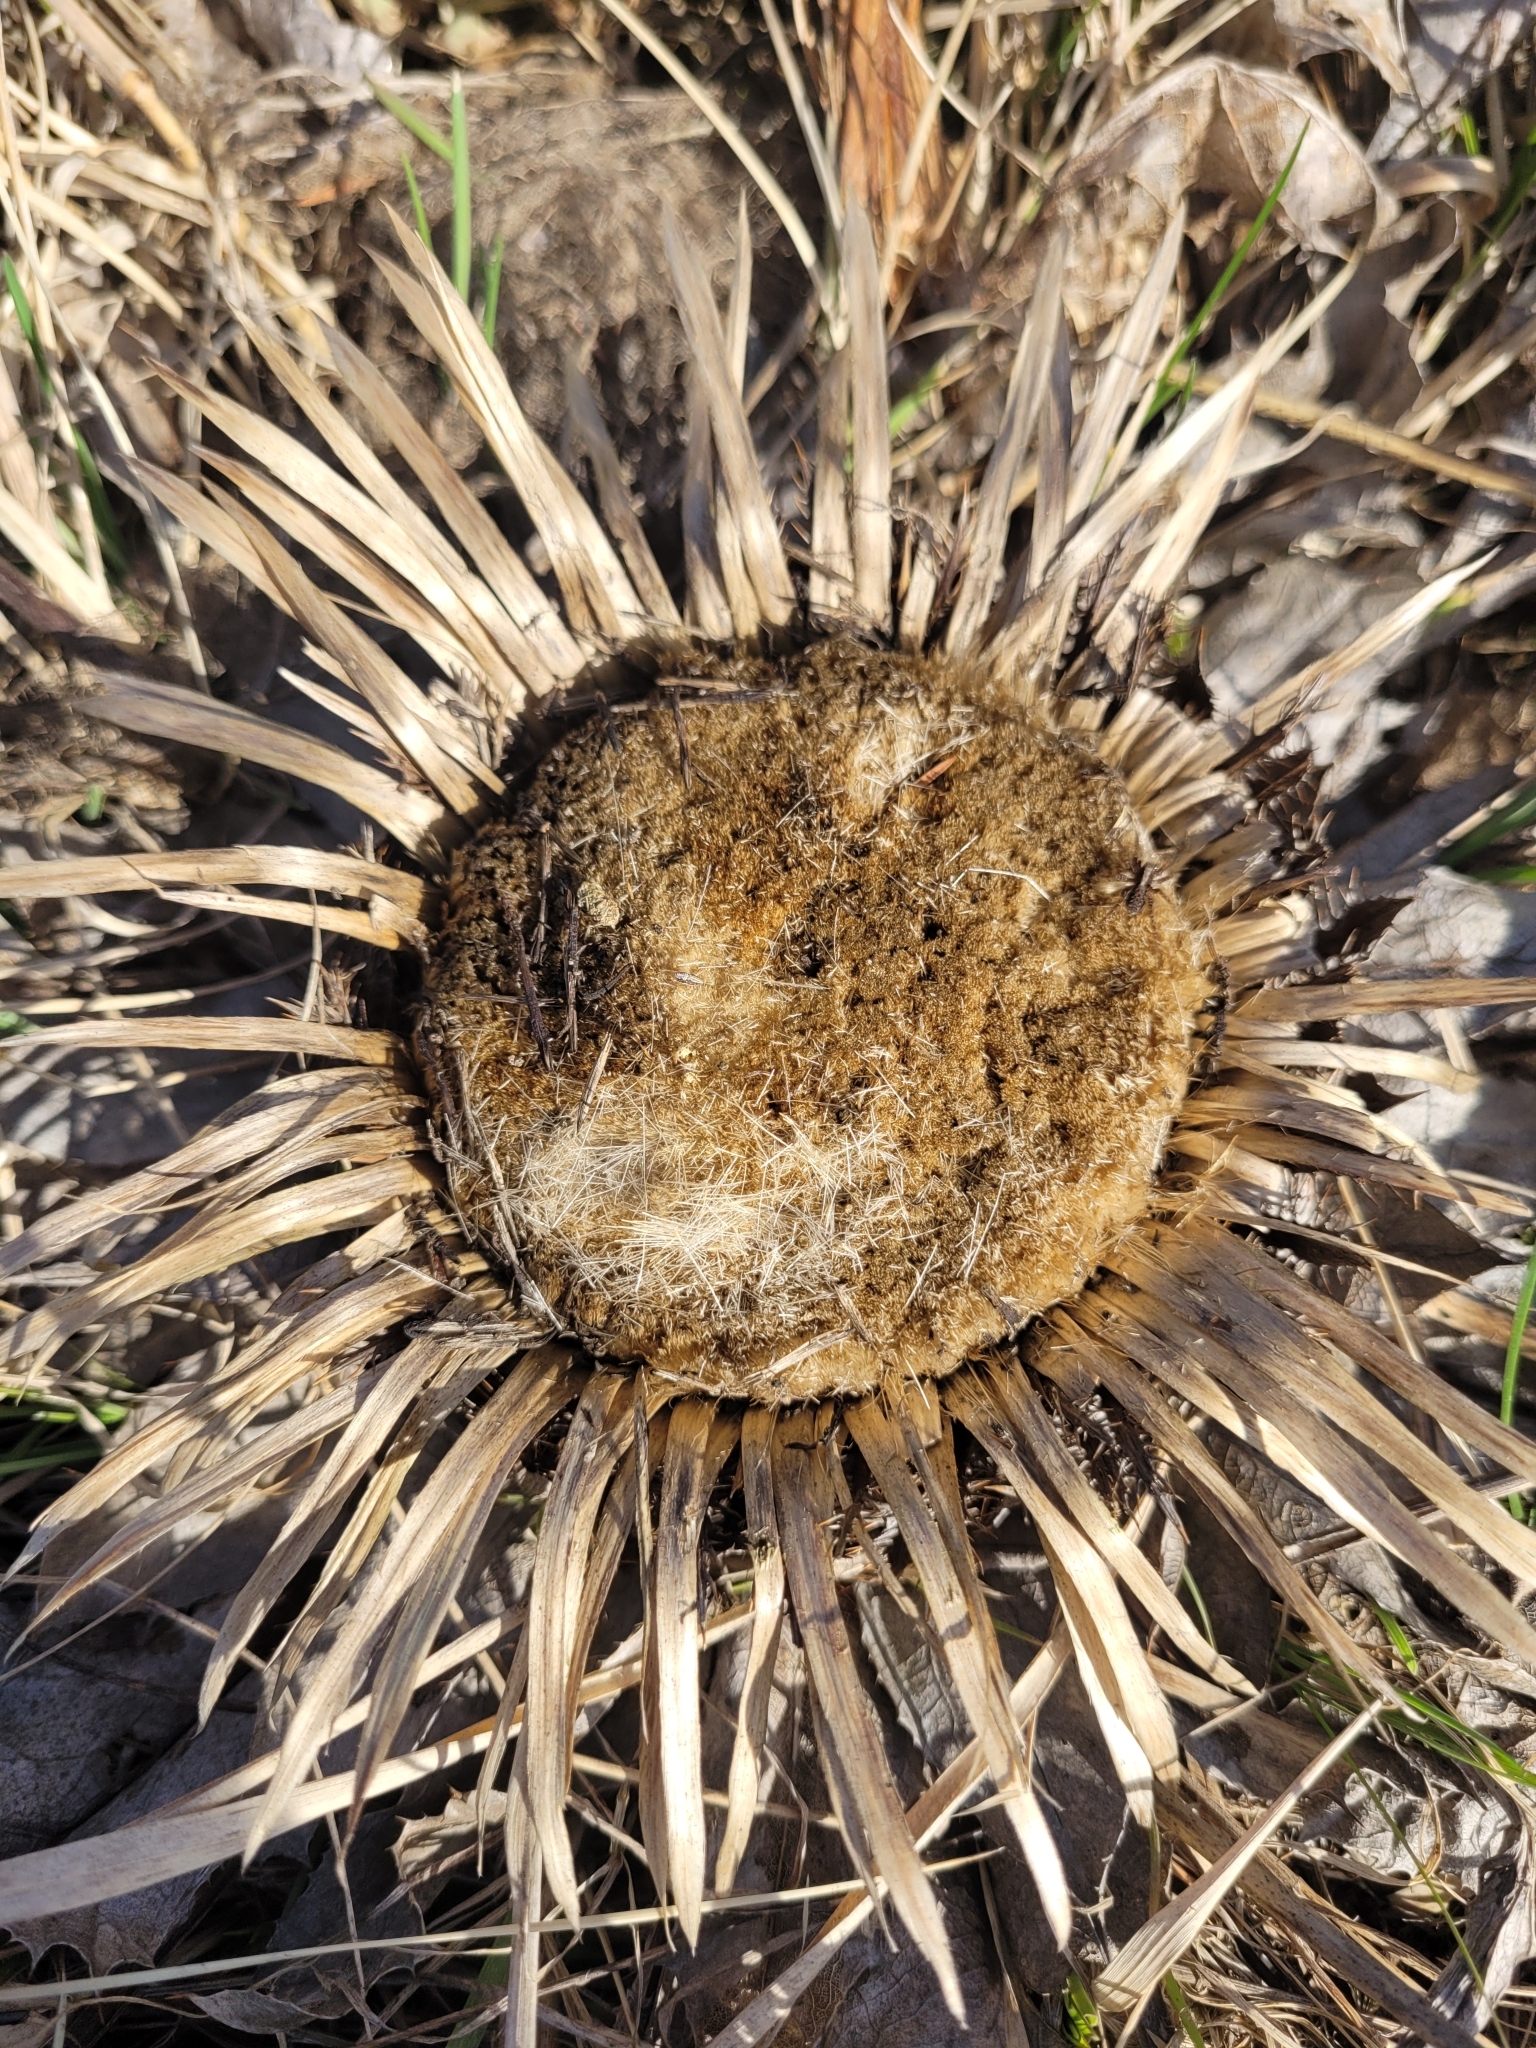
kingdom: Plantae
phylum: Tracheophyta
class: Magnoliopsida
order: Asterales
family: Asteraceae
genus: Carlina
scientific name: Carlina acanthifolia
